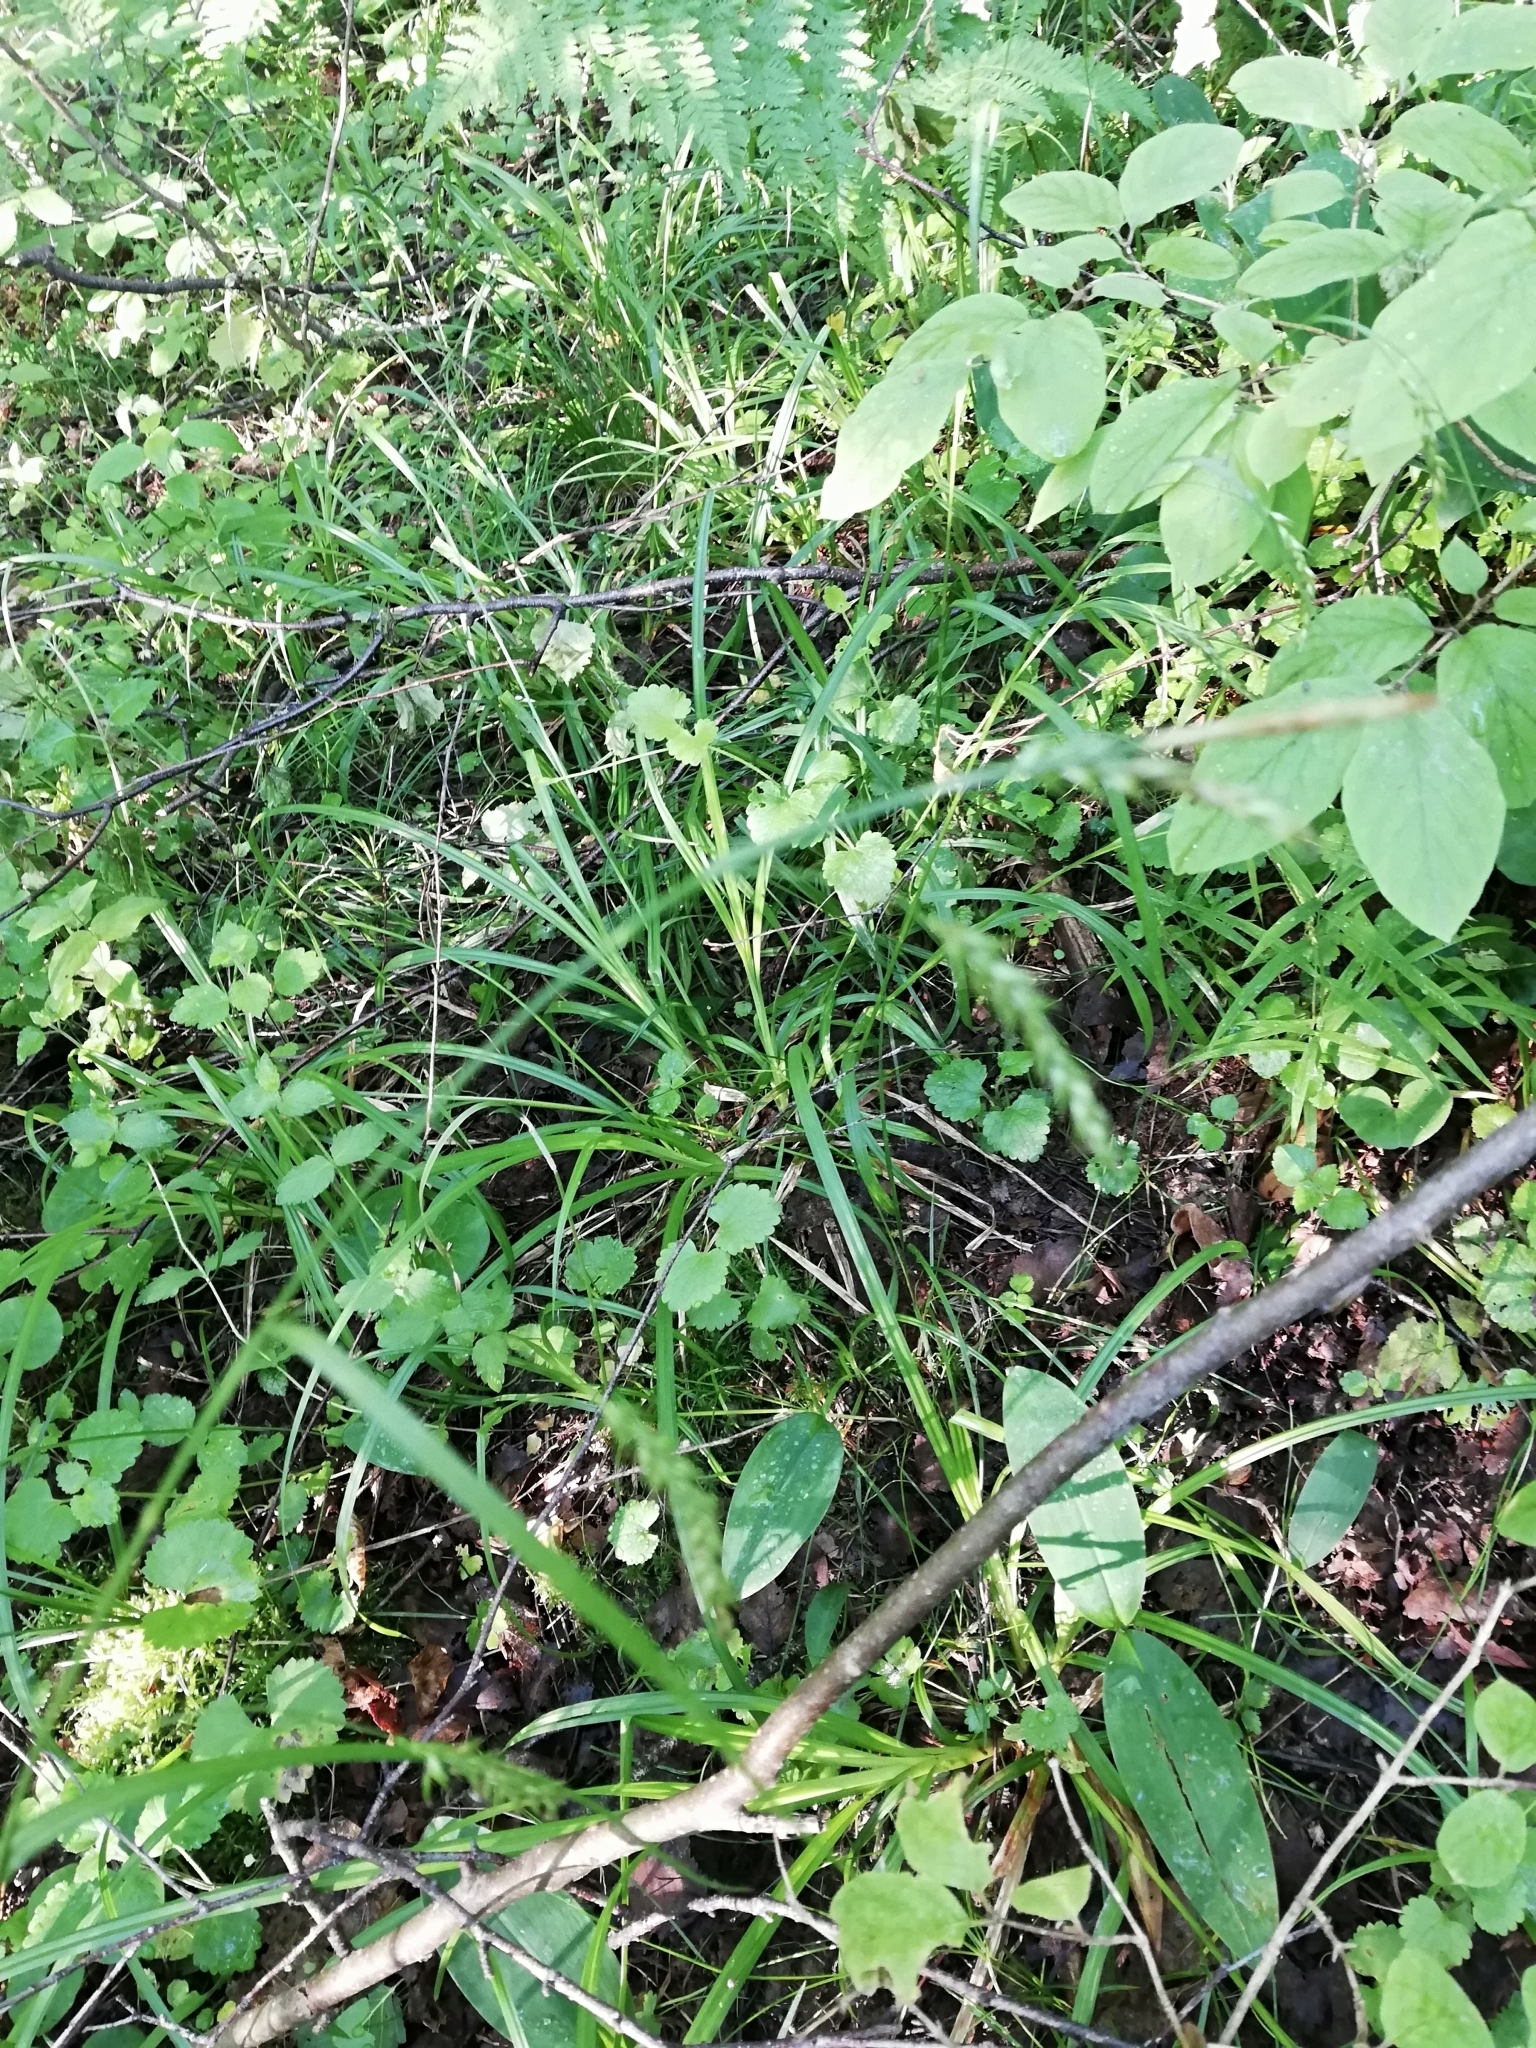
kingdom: Plantae
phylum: Tracheophyta
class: Liliopsida
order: Poales
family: Cyperaceae
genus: Carex
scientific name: Carex sylvatica
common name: Wood-sedge
